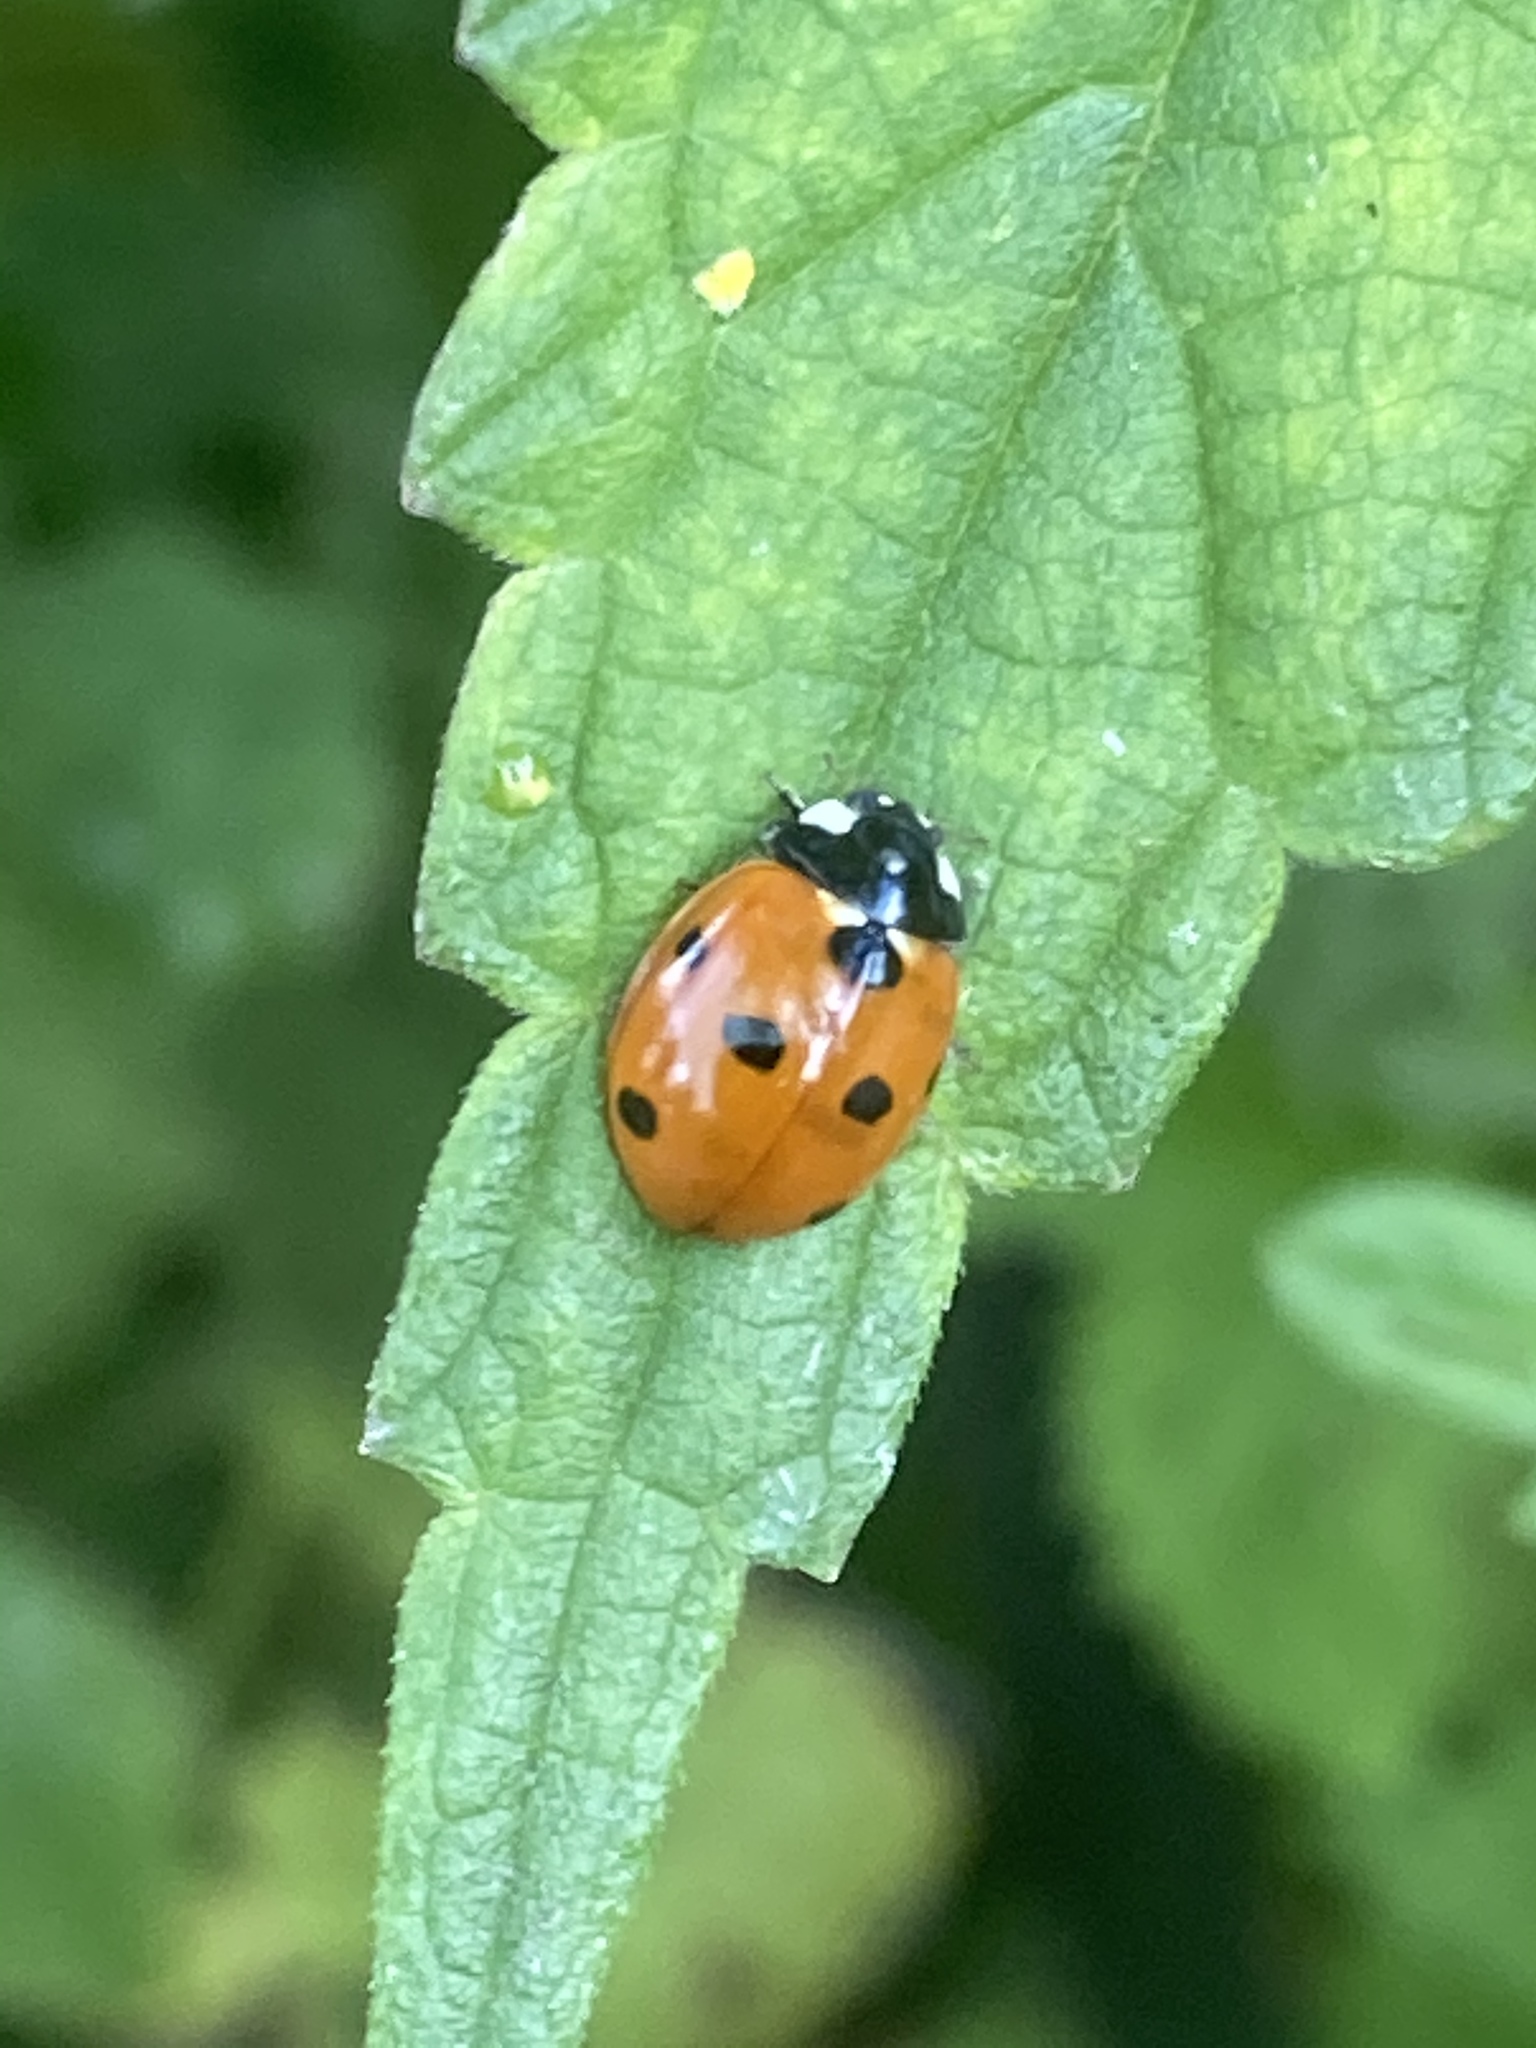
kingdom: Animalia
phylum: Arthropoda
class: Insecta
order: Coleoptera
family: Coccinellidae
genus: Coccinella
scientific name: Coccinella septempunctata
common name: Sevenspotted lady beetle
